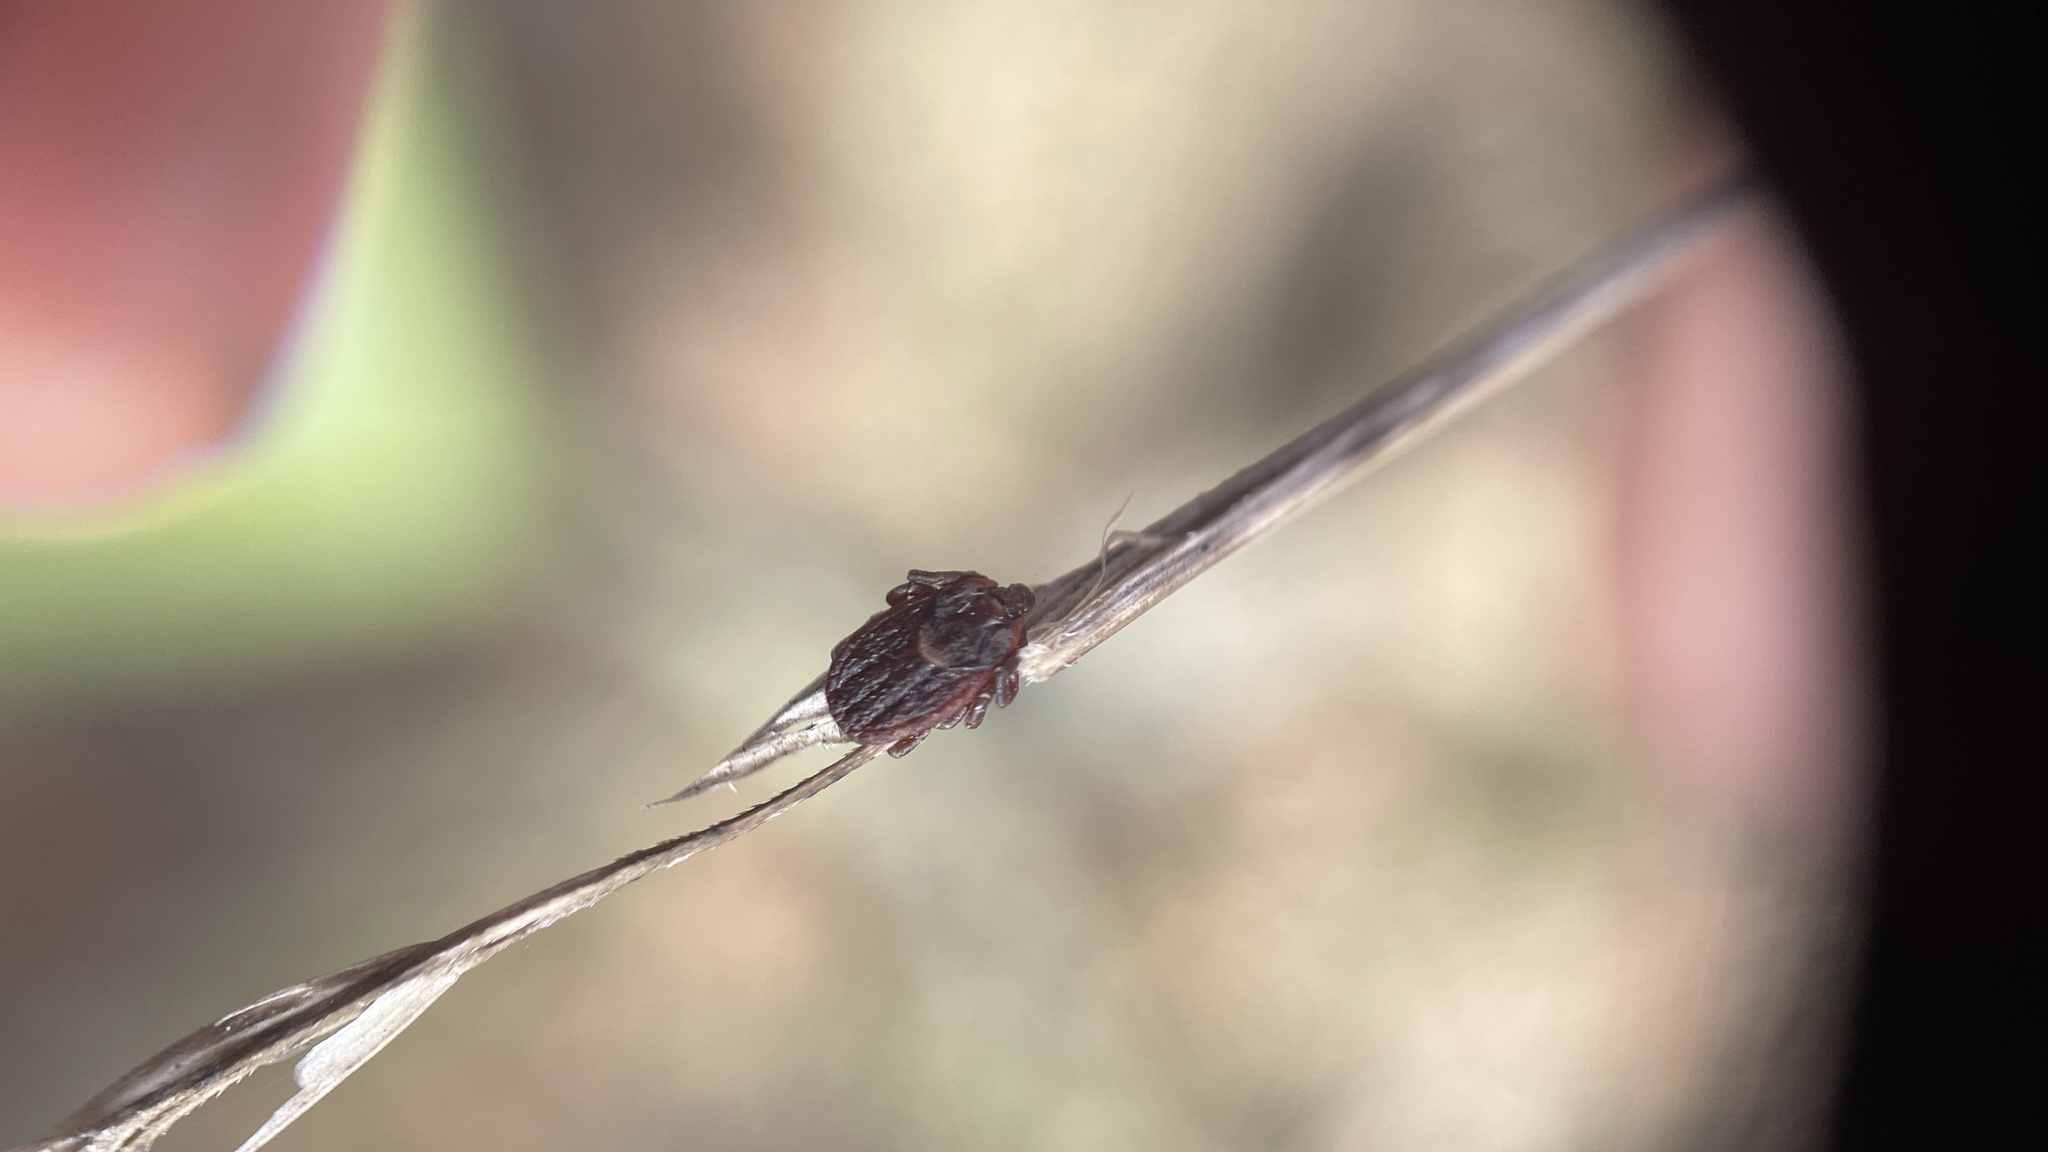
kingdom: Animalia
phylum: Arthropoda
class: Arachnida
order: Ixodida
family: Ixodidae
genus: Dermacentor
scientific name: Dermacentor occidentalis
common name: Net tick
